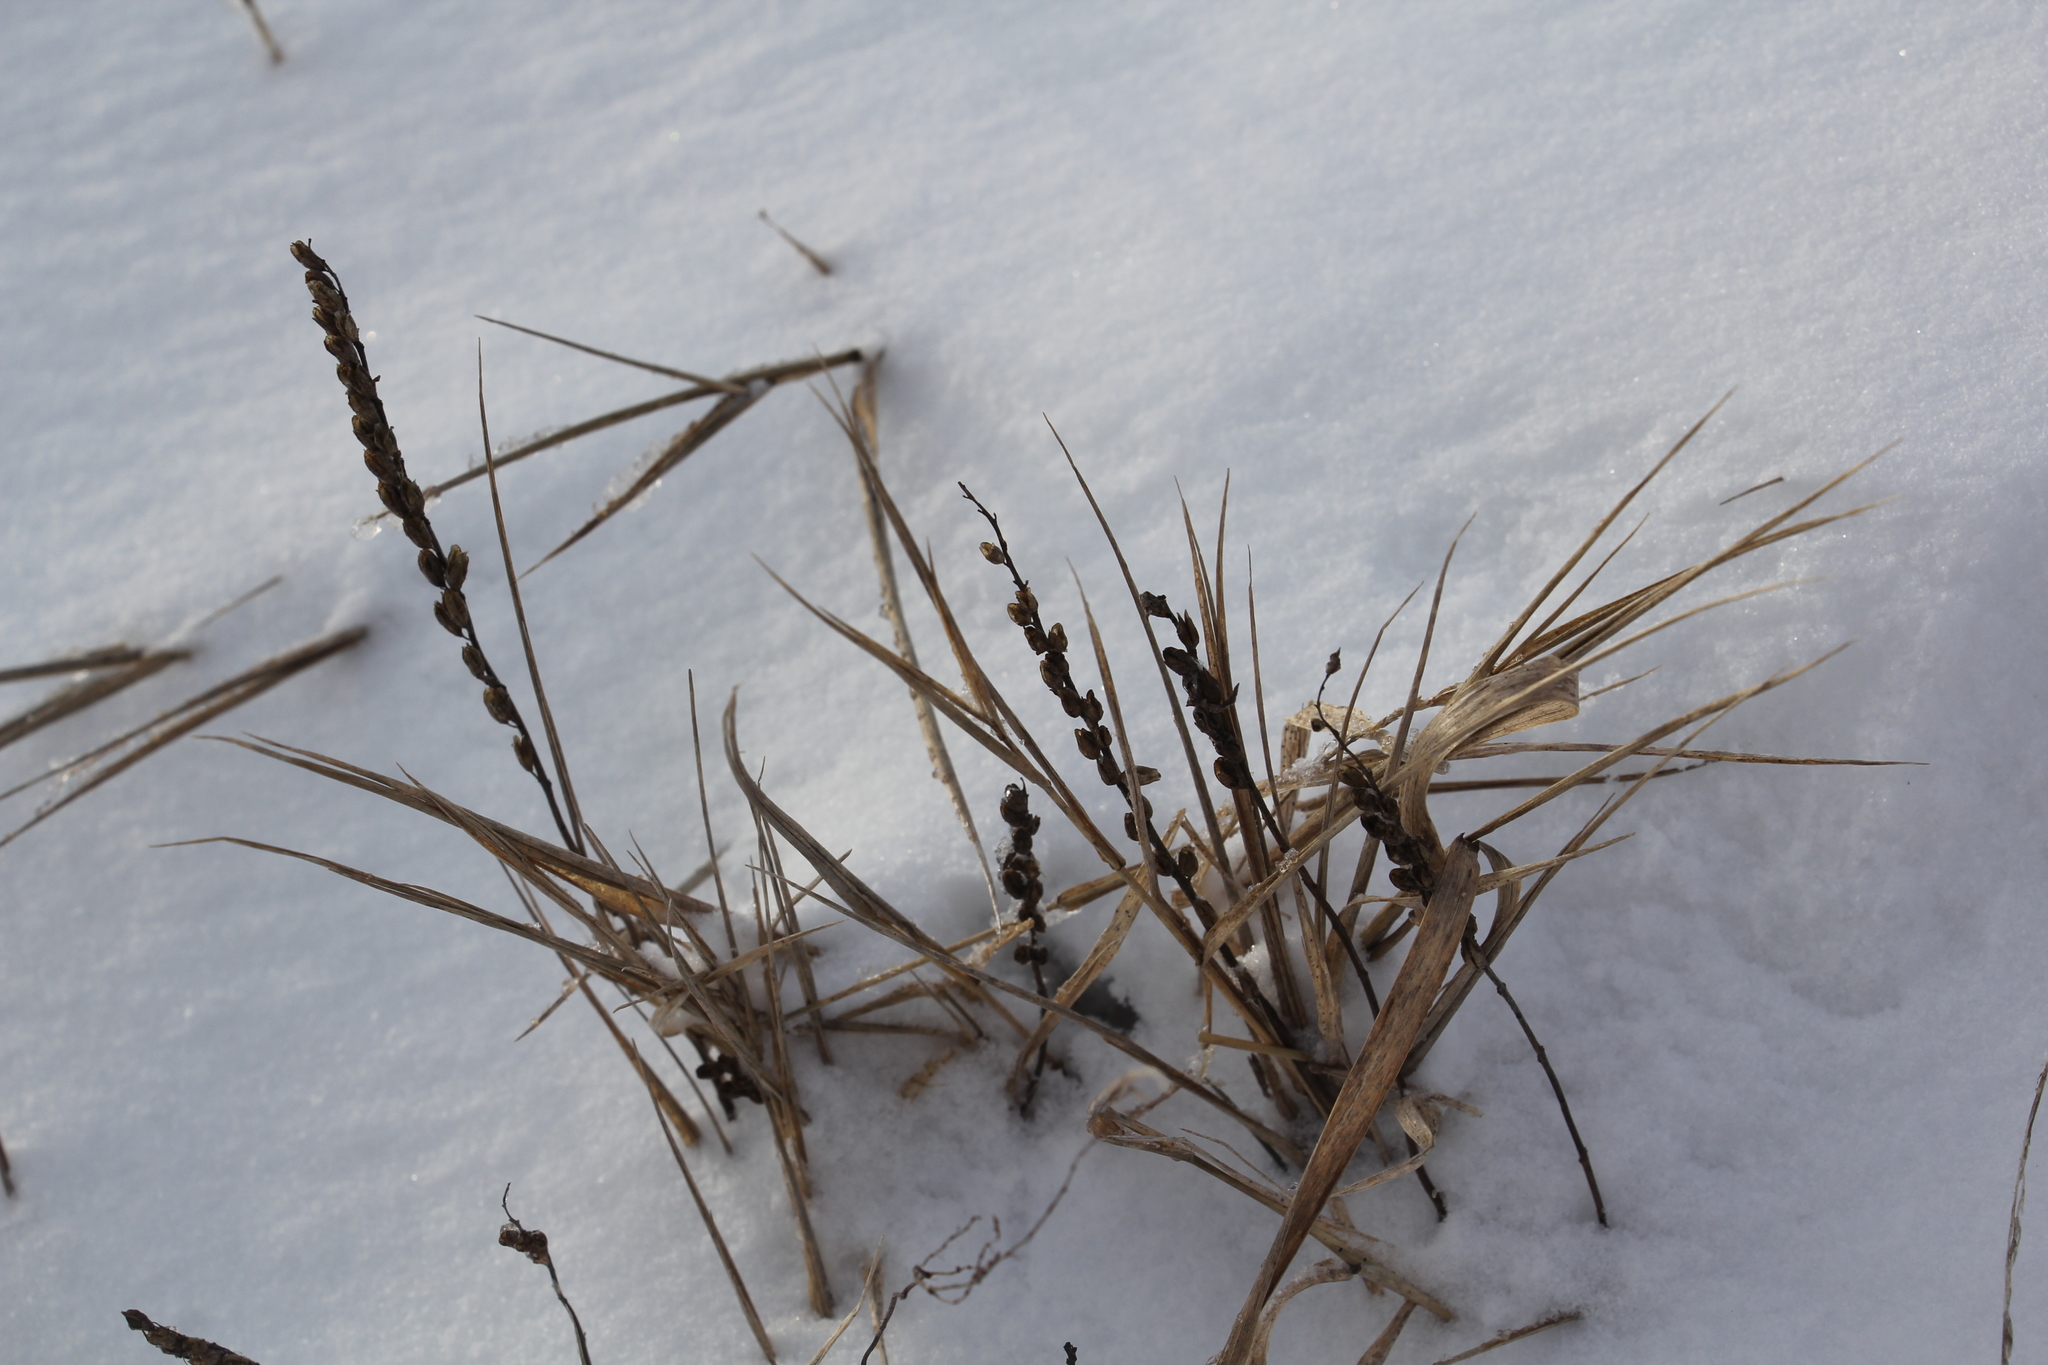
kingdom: Plantae
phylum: Tracheophyta
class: Magnoliopsida
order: Lamiales
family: Orobanchaceae
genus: Odontites
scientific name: Odontites vulgaris
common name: Broomrape
